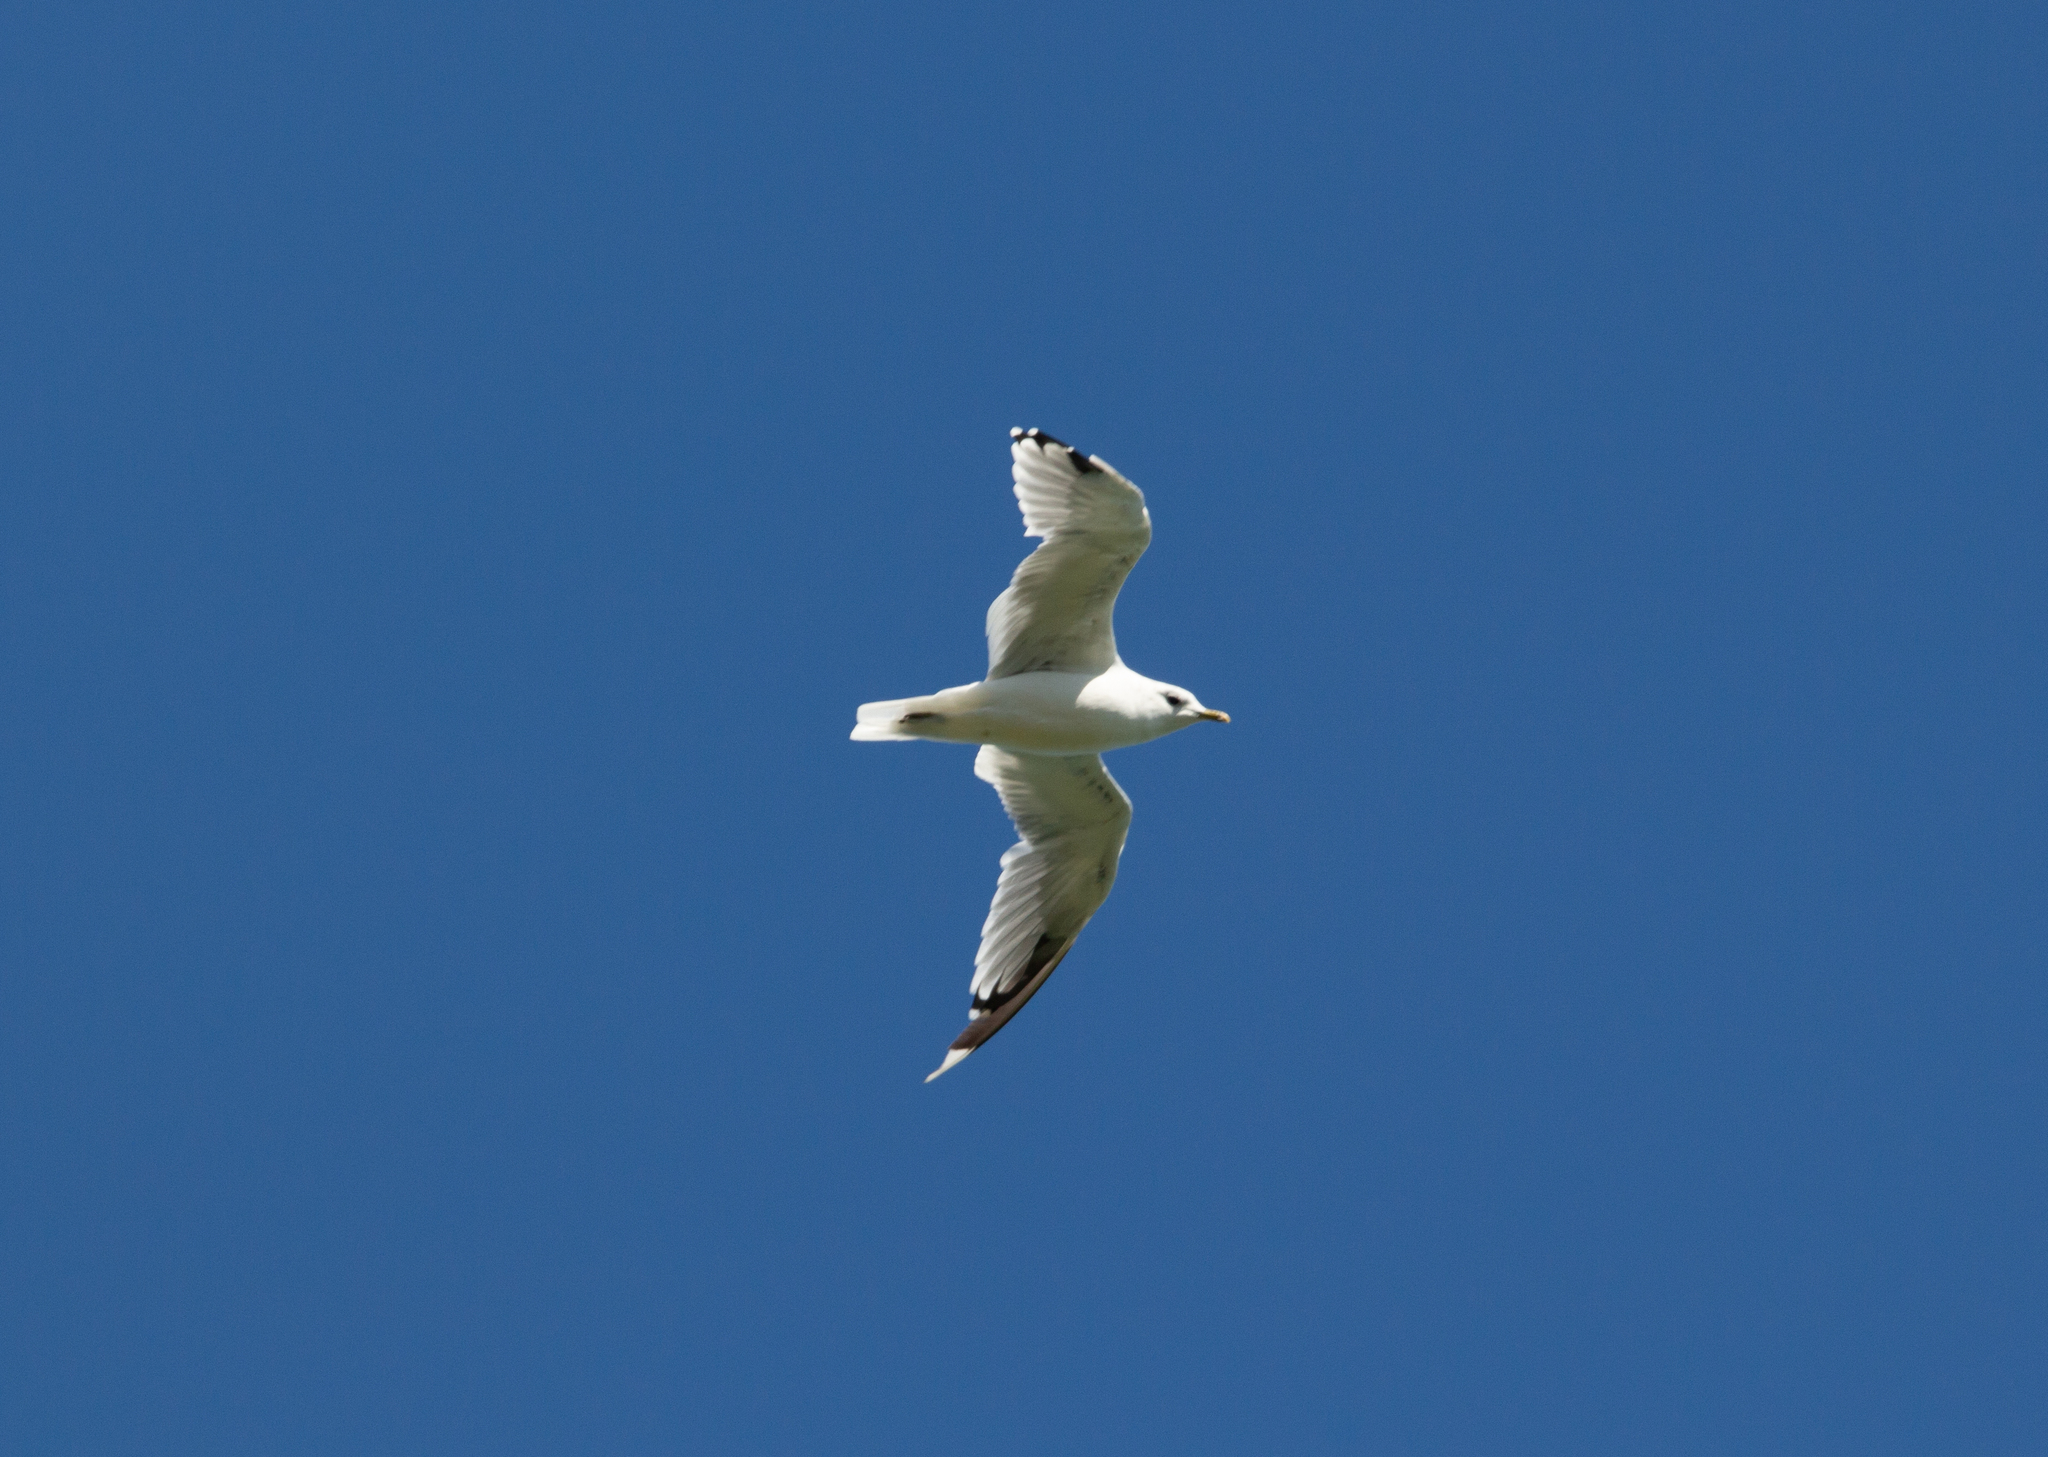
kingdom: Animalia
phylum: Chordata
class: Aves
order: Charadriiformes
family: Laridae
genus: Larus
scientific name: Larus canus
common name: Mew gull
